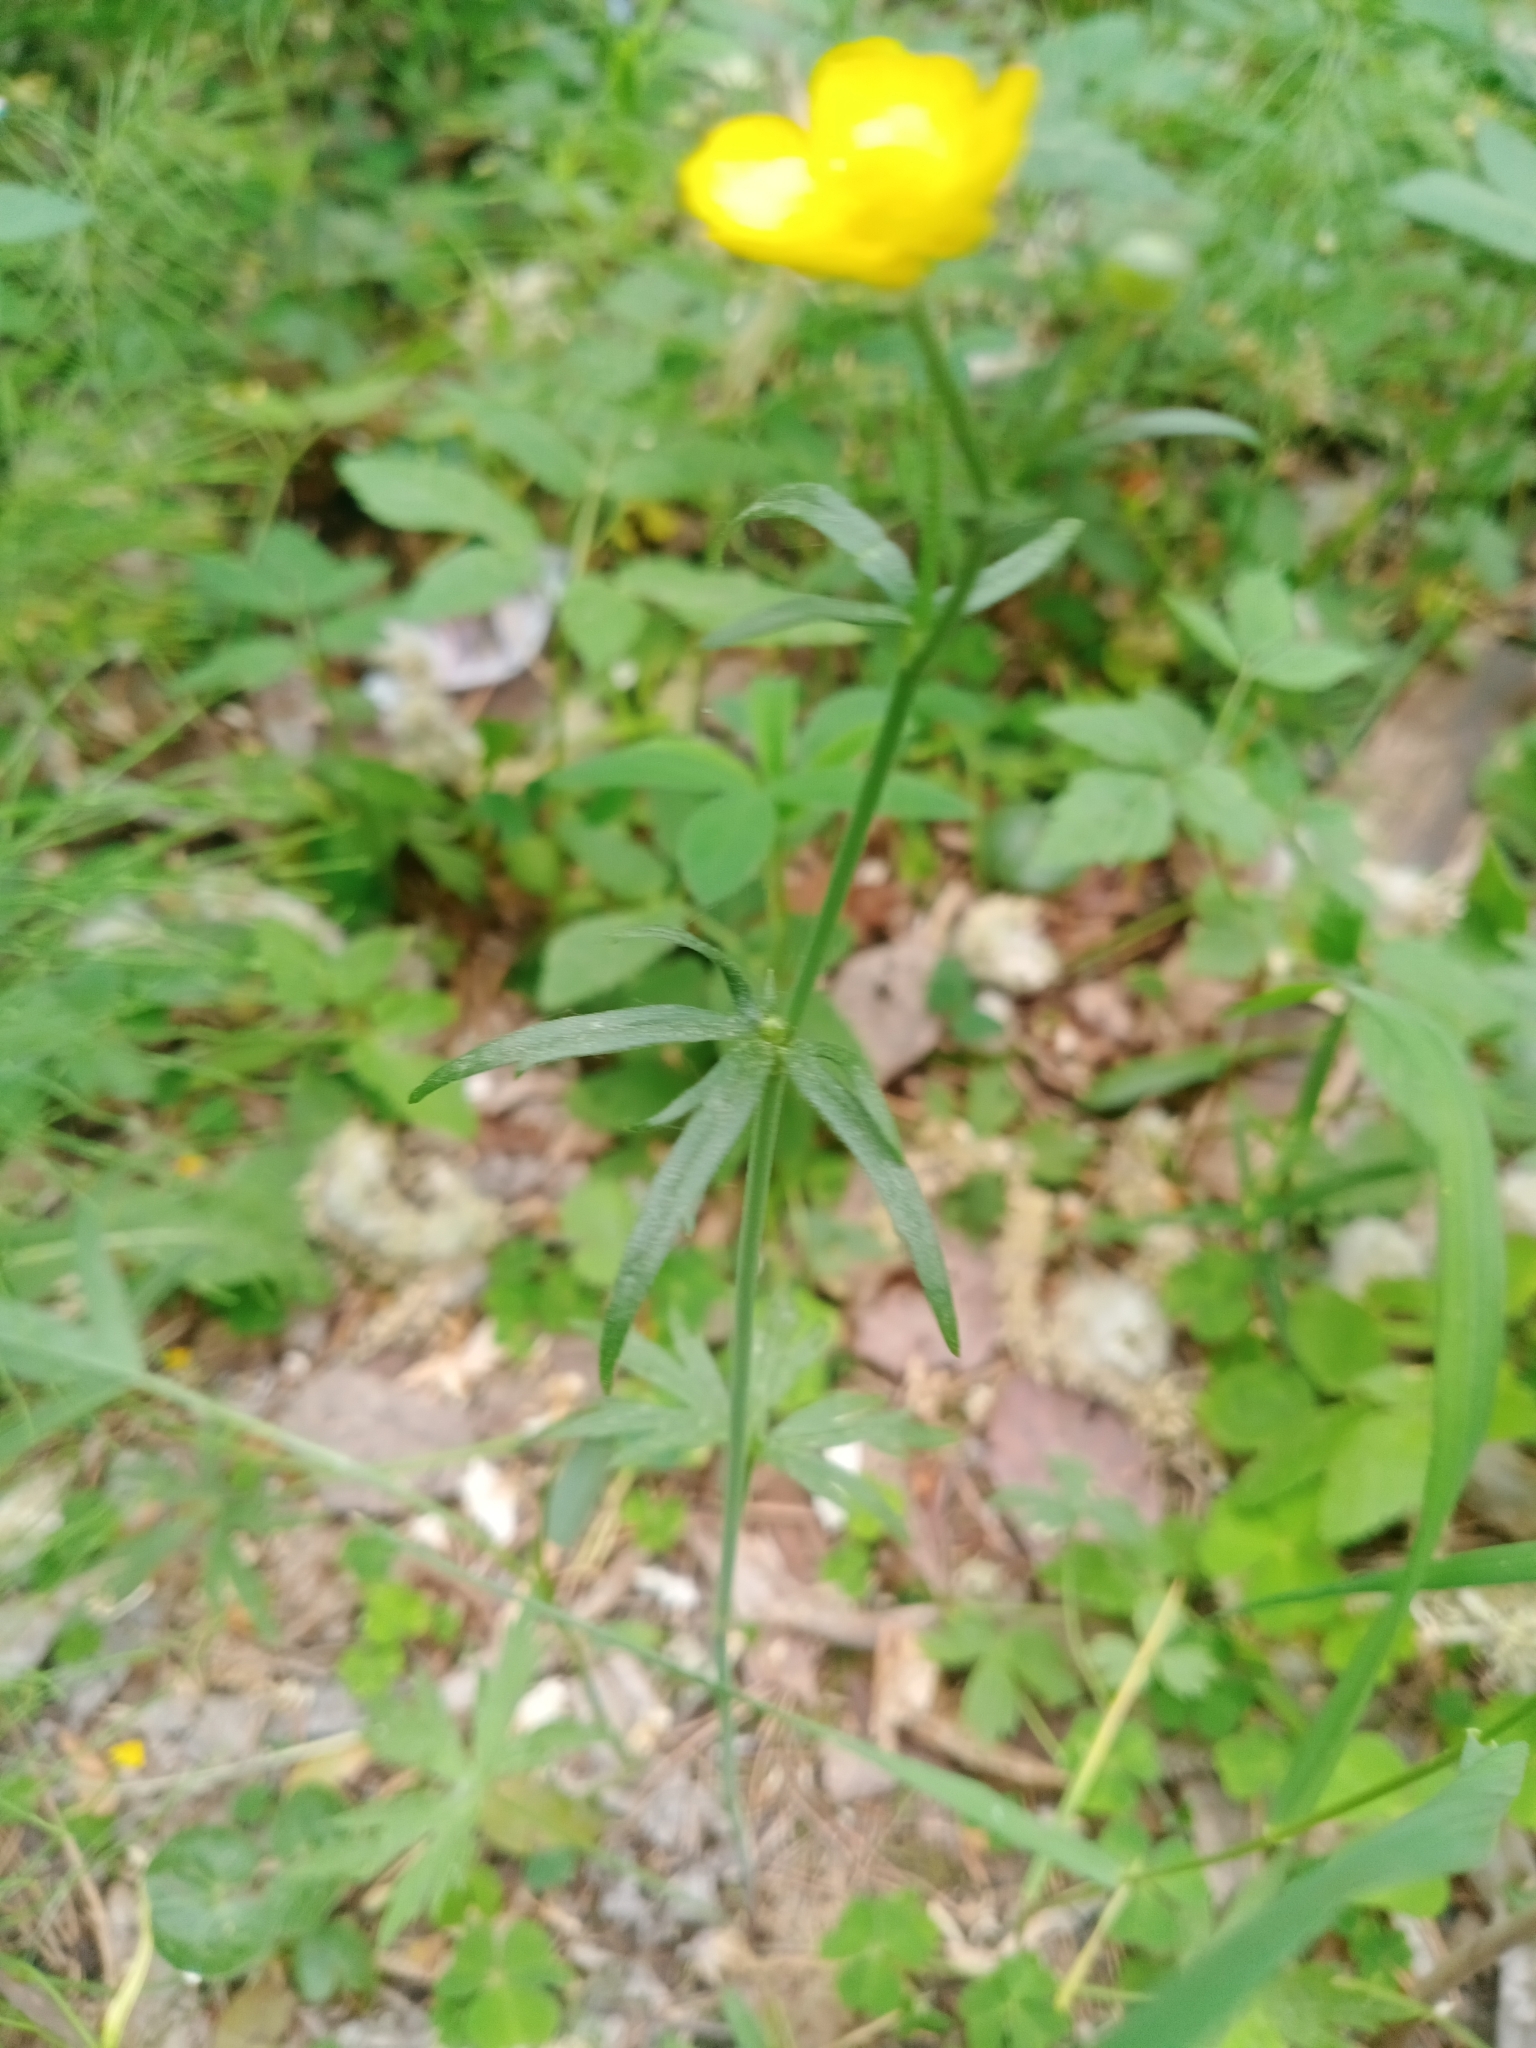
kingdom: Plantae
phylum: Tracheophyta
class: Magnoliopsida
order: Ranunculales
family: Ranunculaceae
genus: Ranunculus
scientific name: Ranunculus acris
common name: Meadow buttercup
